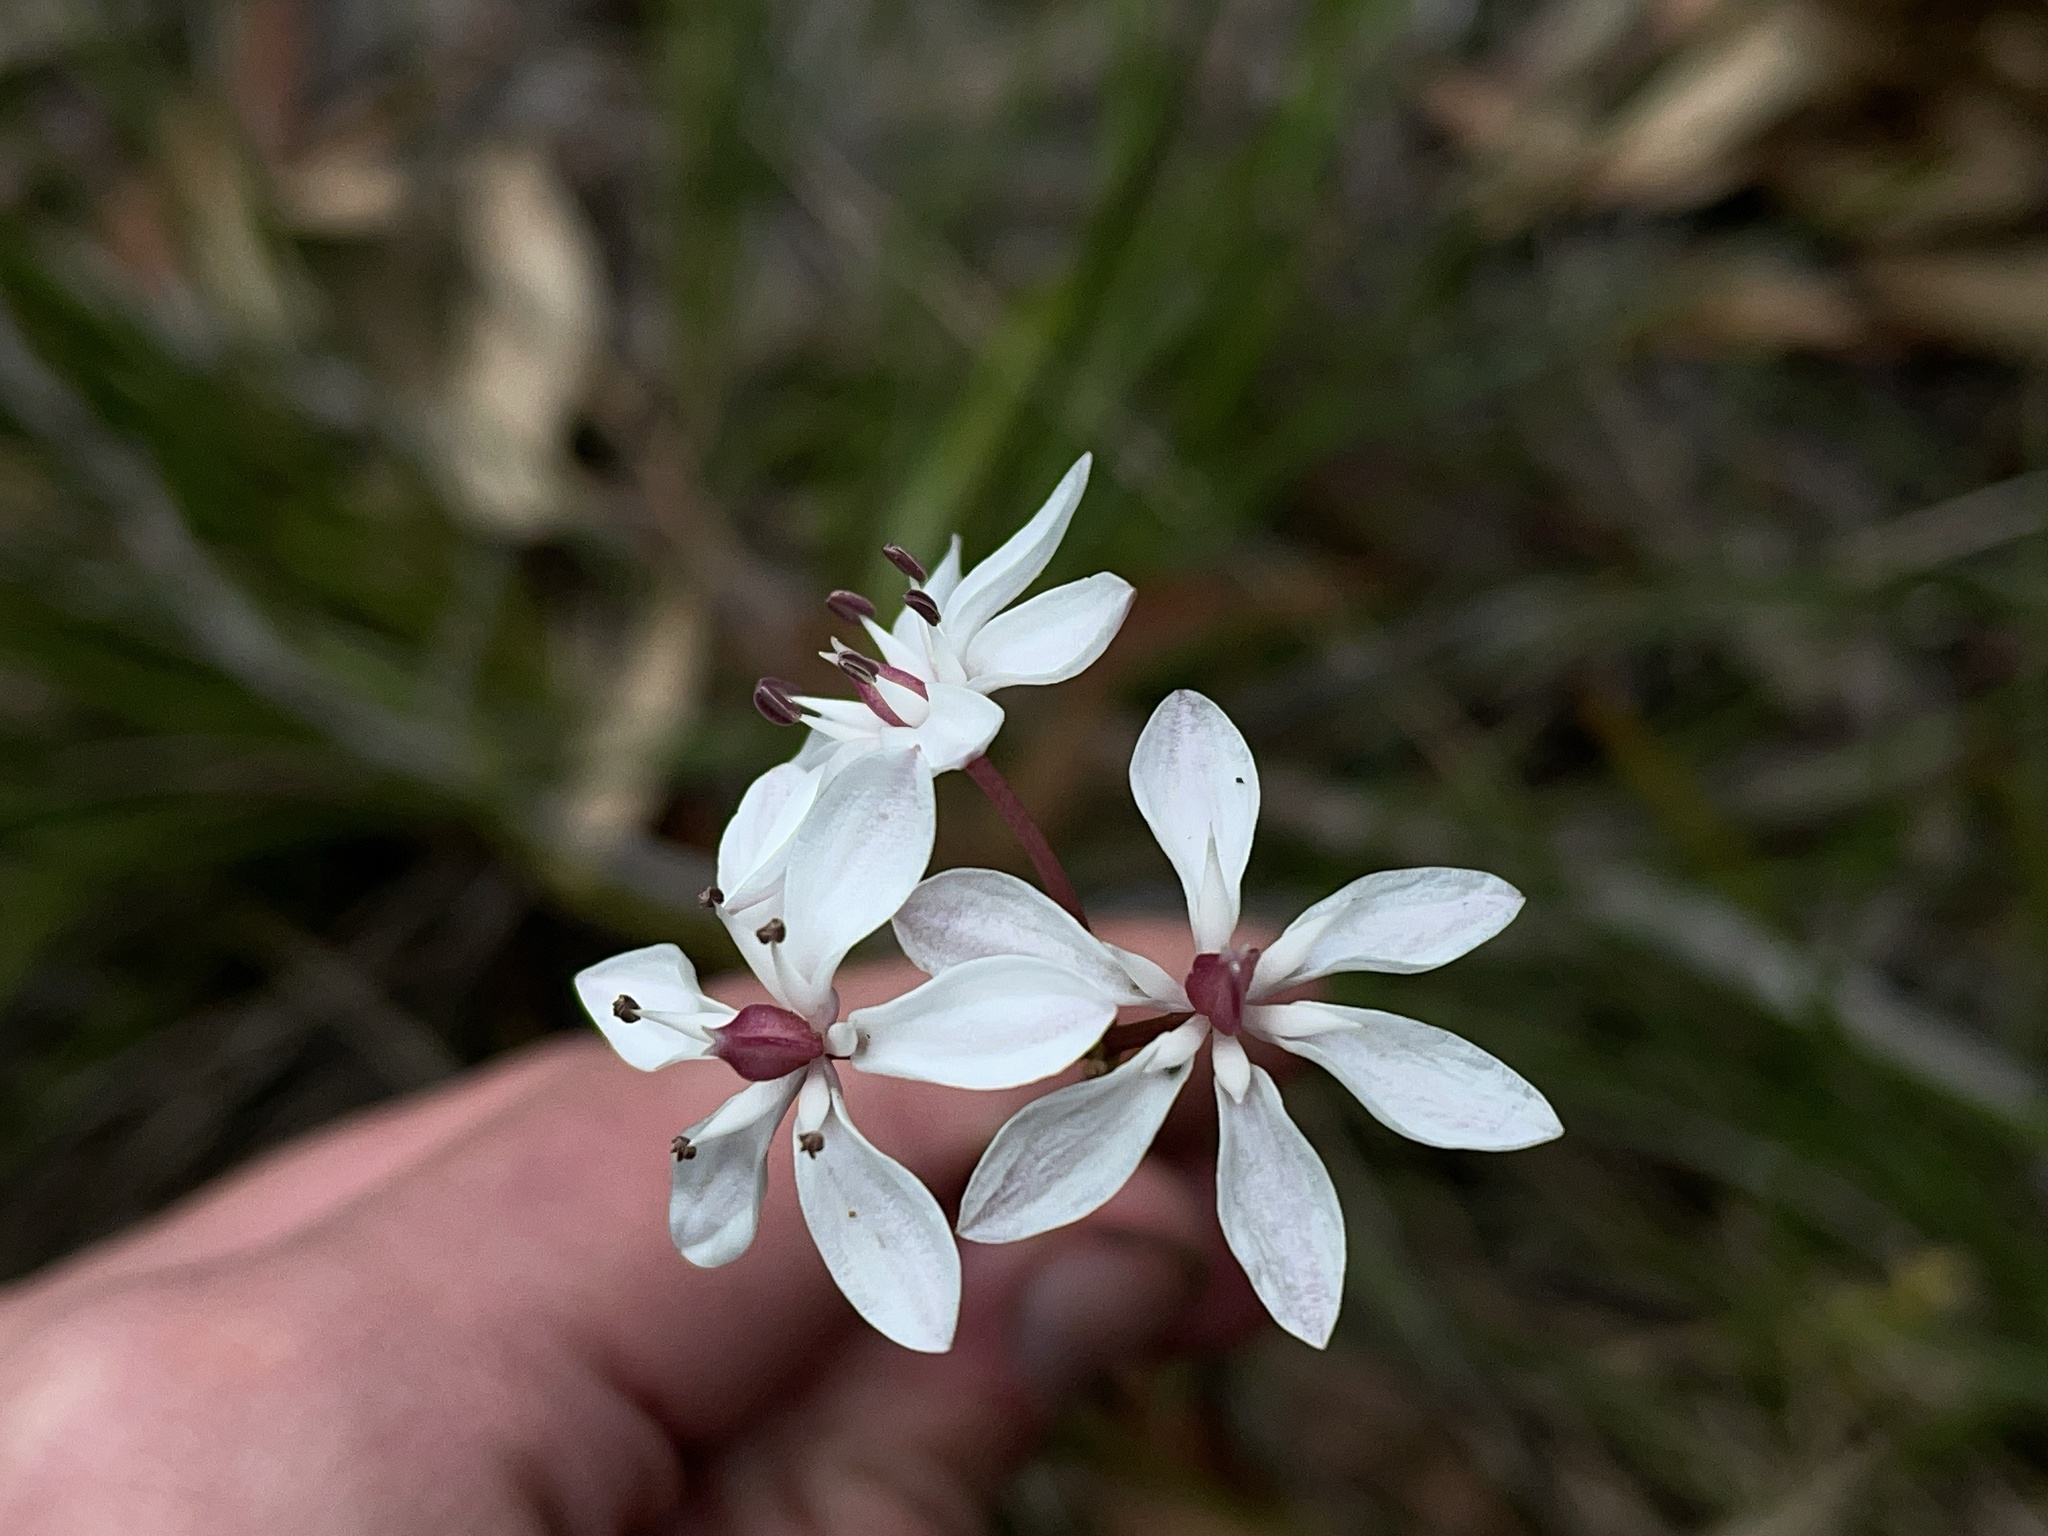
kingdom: Plantae
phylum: Tracheophyta
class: Liliopsida
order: Liliales
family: Colchicaceae
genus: Burchardia
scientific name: Burchardia umbellata
